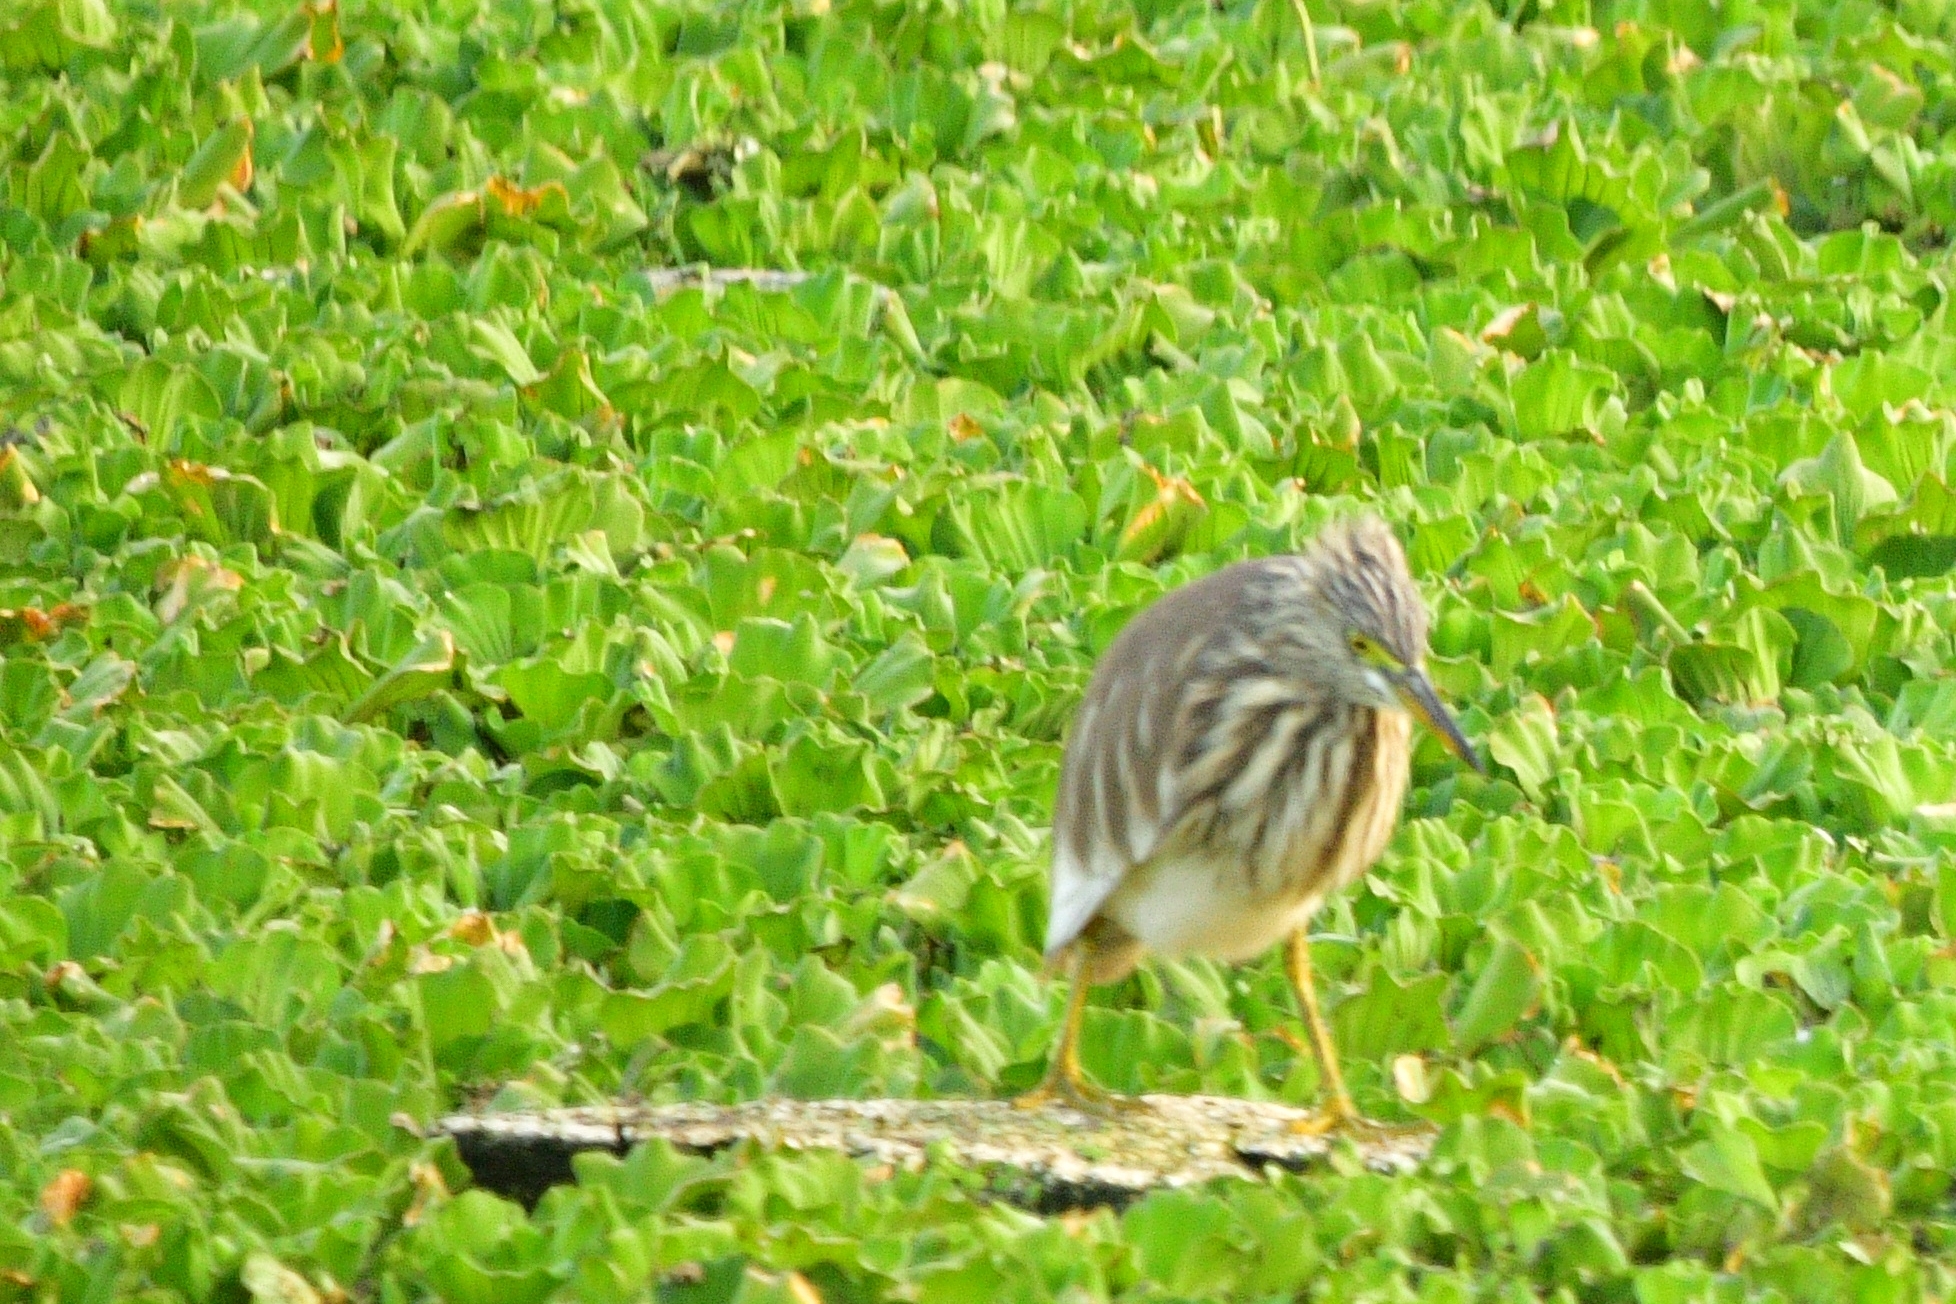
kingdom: Animalia
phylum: Chordata
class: Aves
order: Pelecaniformes
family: Ardeidae
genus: Ardeola
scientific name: Ardeola grayii
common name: Indian pond heron
